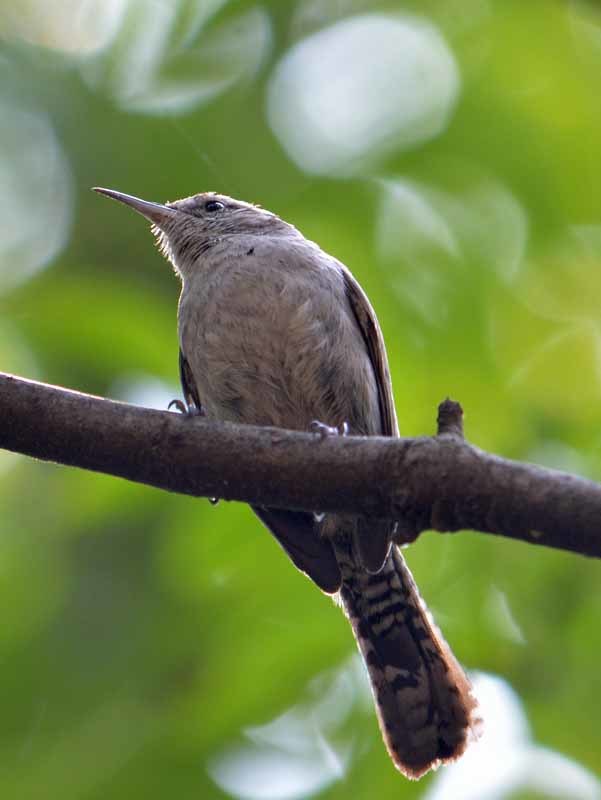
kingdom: Animalia
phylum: Chordata
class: Aves
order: Passeriformes
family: Troglodytidae
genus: Thryomanes
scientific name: Thryomanes bewickii
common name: Bewick's wren
